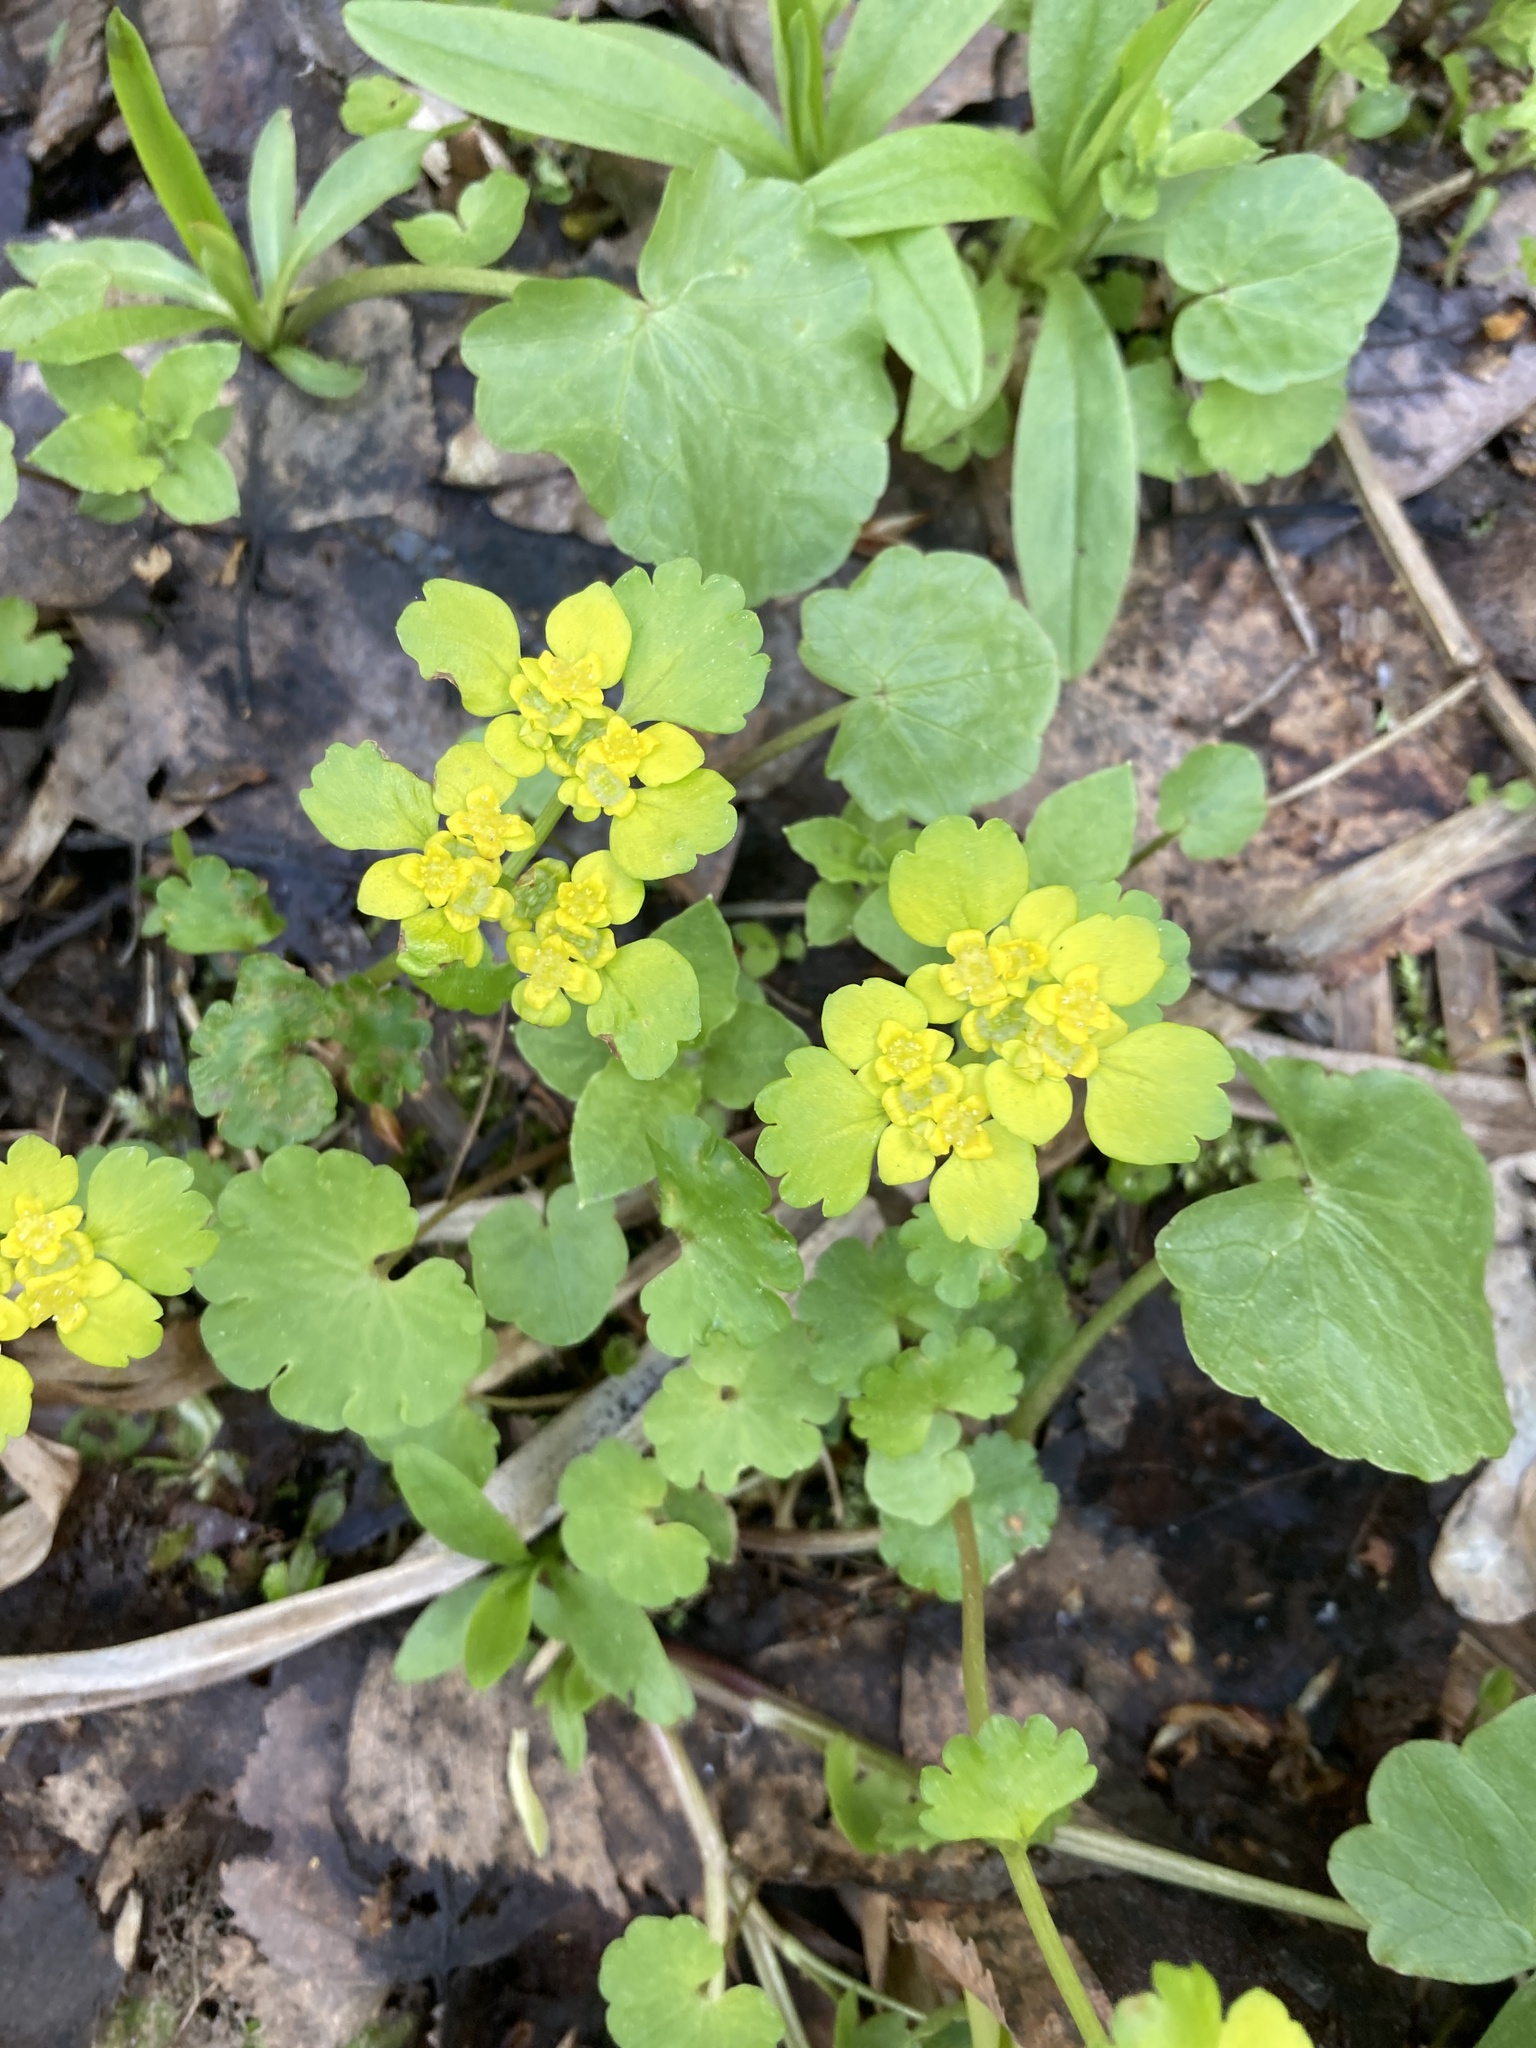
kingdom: Plantae
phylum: Tracheophyta
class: Magnoliopsida
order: Saxifragales
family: Saxifragaceae
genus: Chrysosplenium
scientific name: Chrysosplenium alternifolium
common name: Alternate-leaved golden-saxifrage
